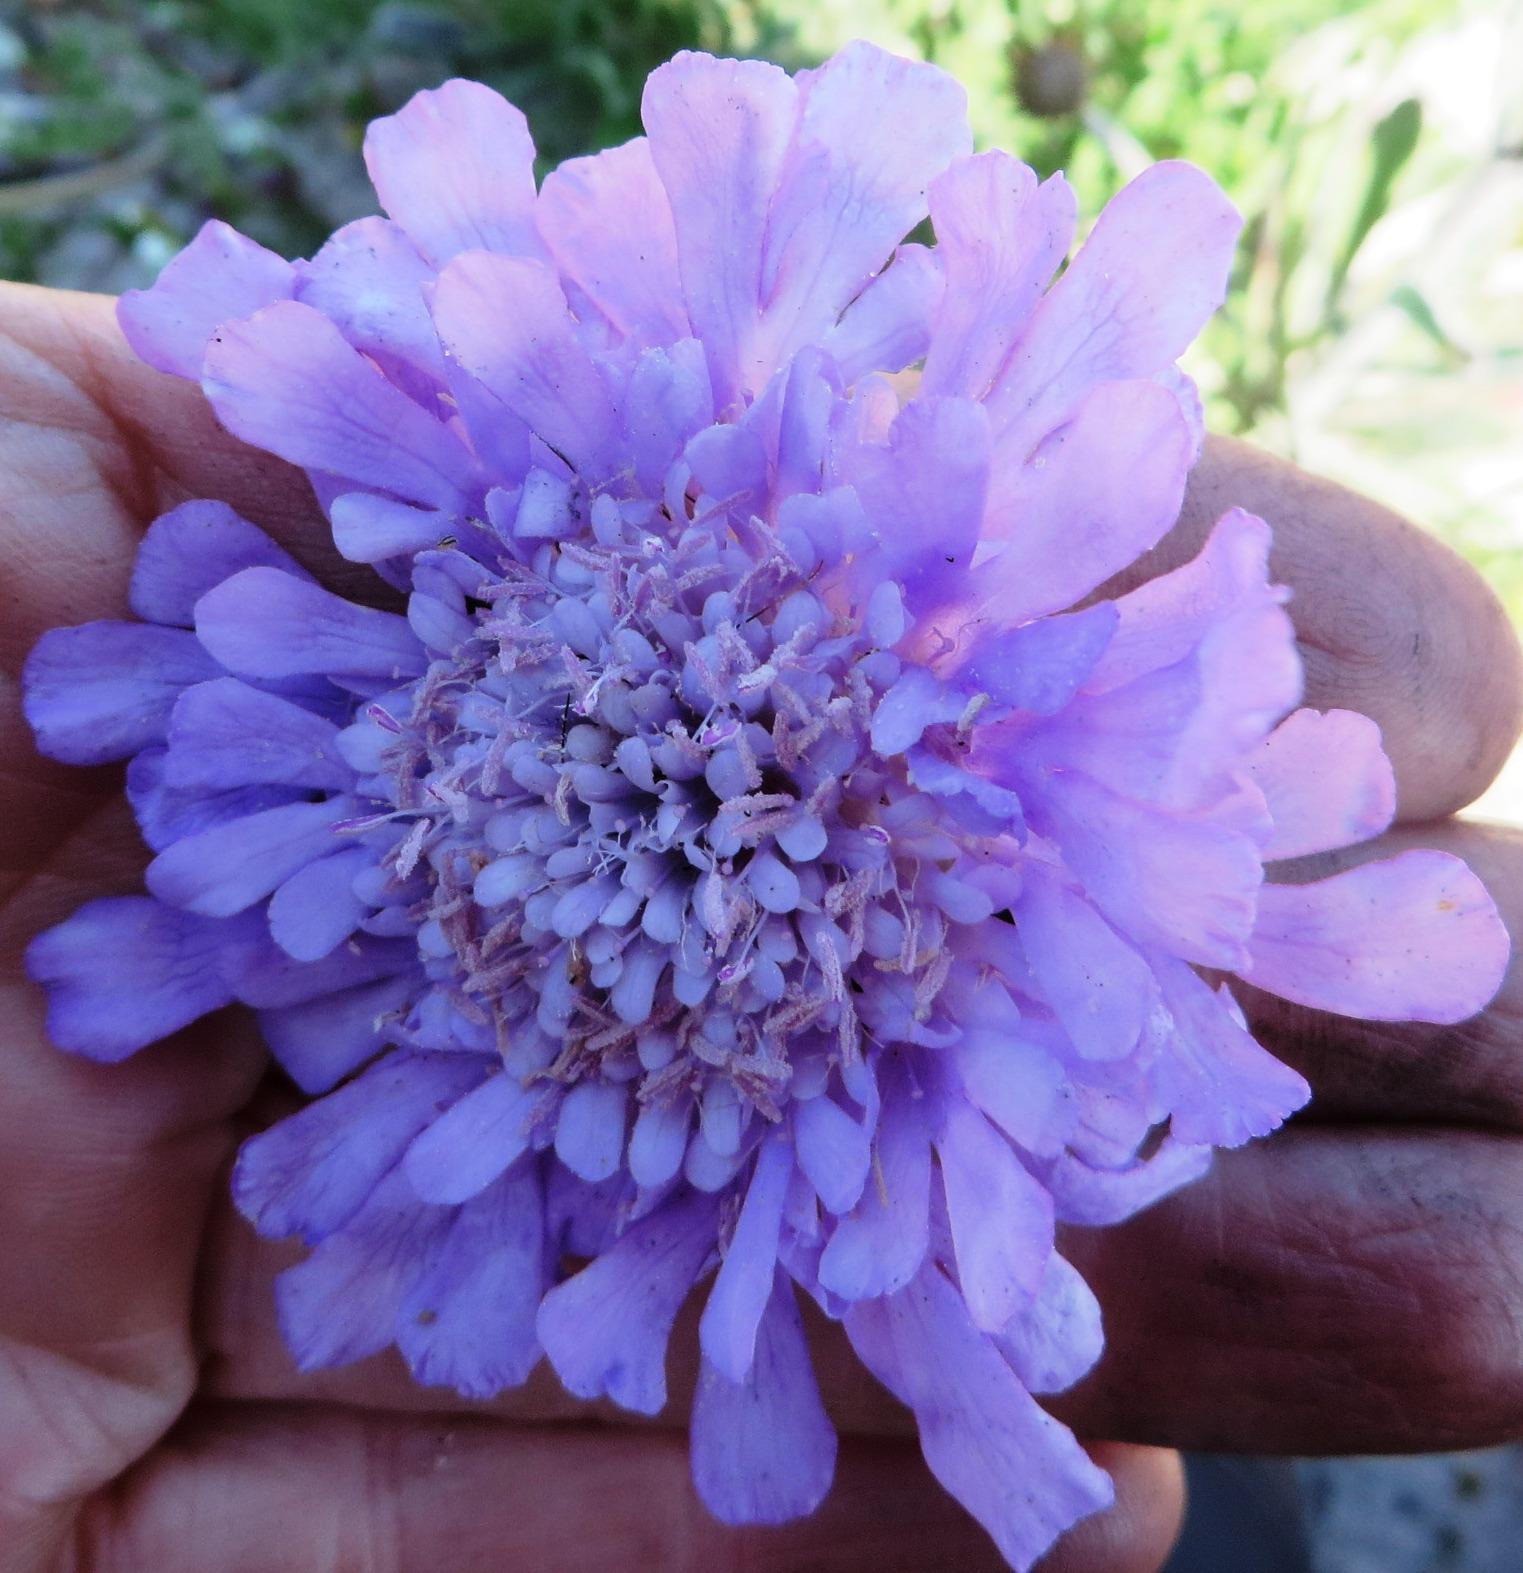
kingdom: Plantae
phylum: Tracheophyta
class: Magnoliopsida
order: Dipsacales
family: Caprifoliaceae
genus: Scabiosa
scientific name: Scabiosa incisa
